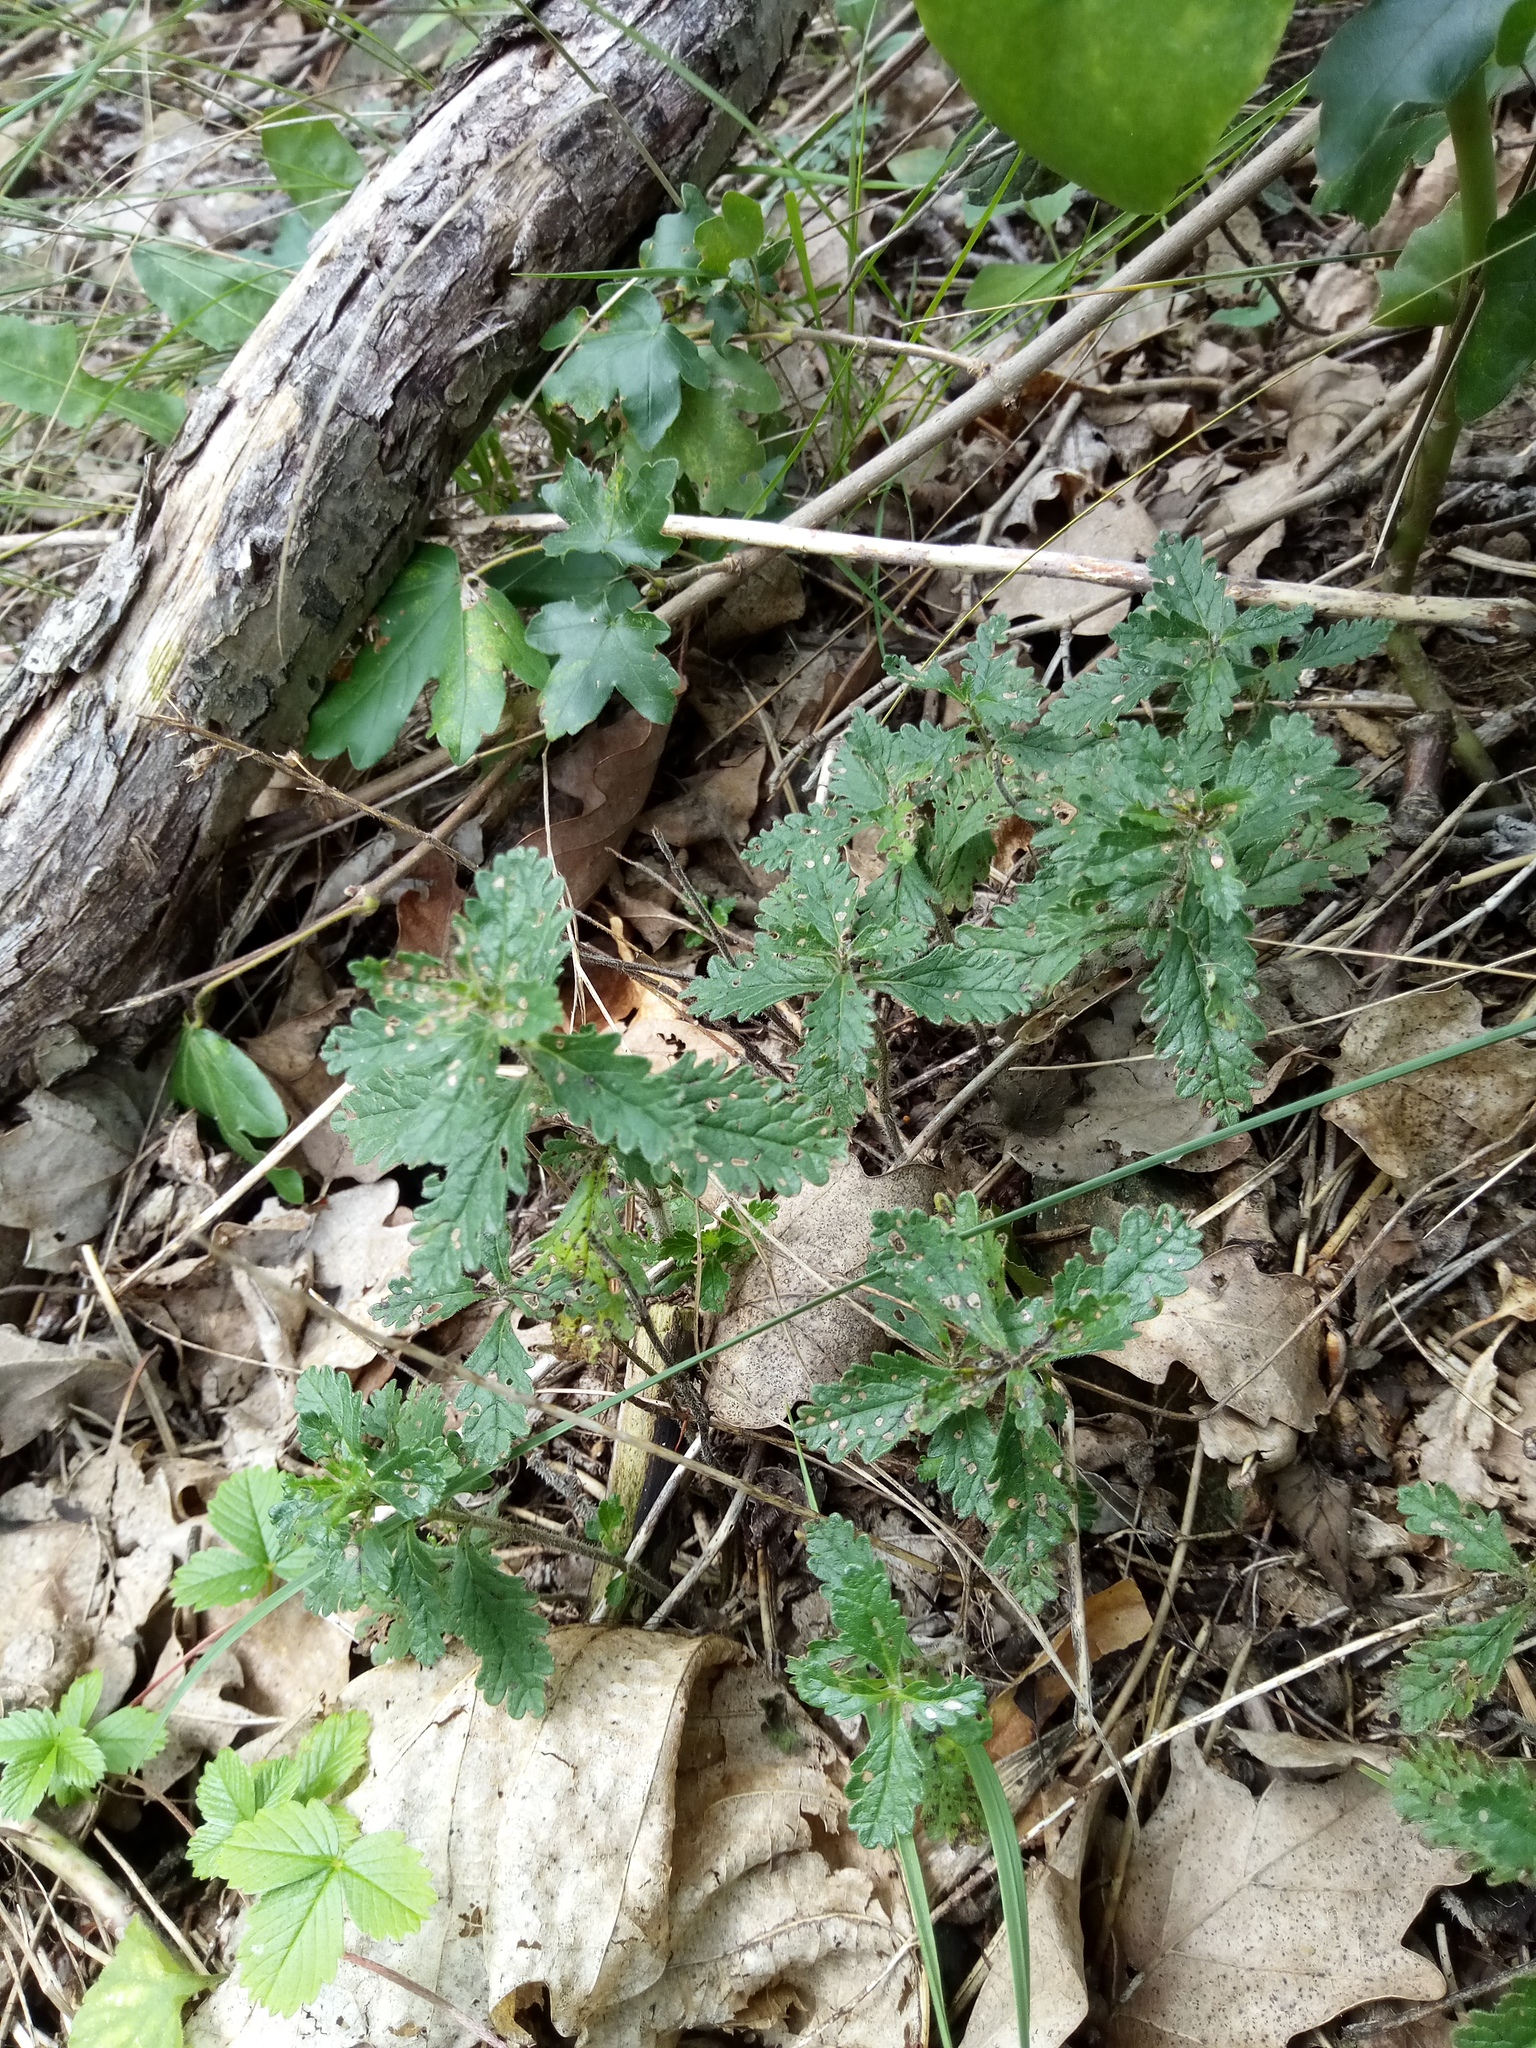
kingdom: Plantae
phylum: Tracheophyta
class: Magnoliopsida
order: Lamiales
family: Lamiaceae
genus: Teucrium
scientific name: Teucrium chamaedrys
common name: Wall germander
